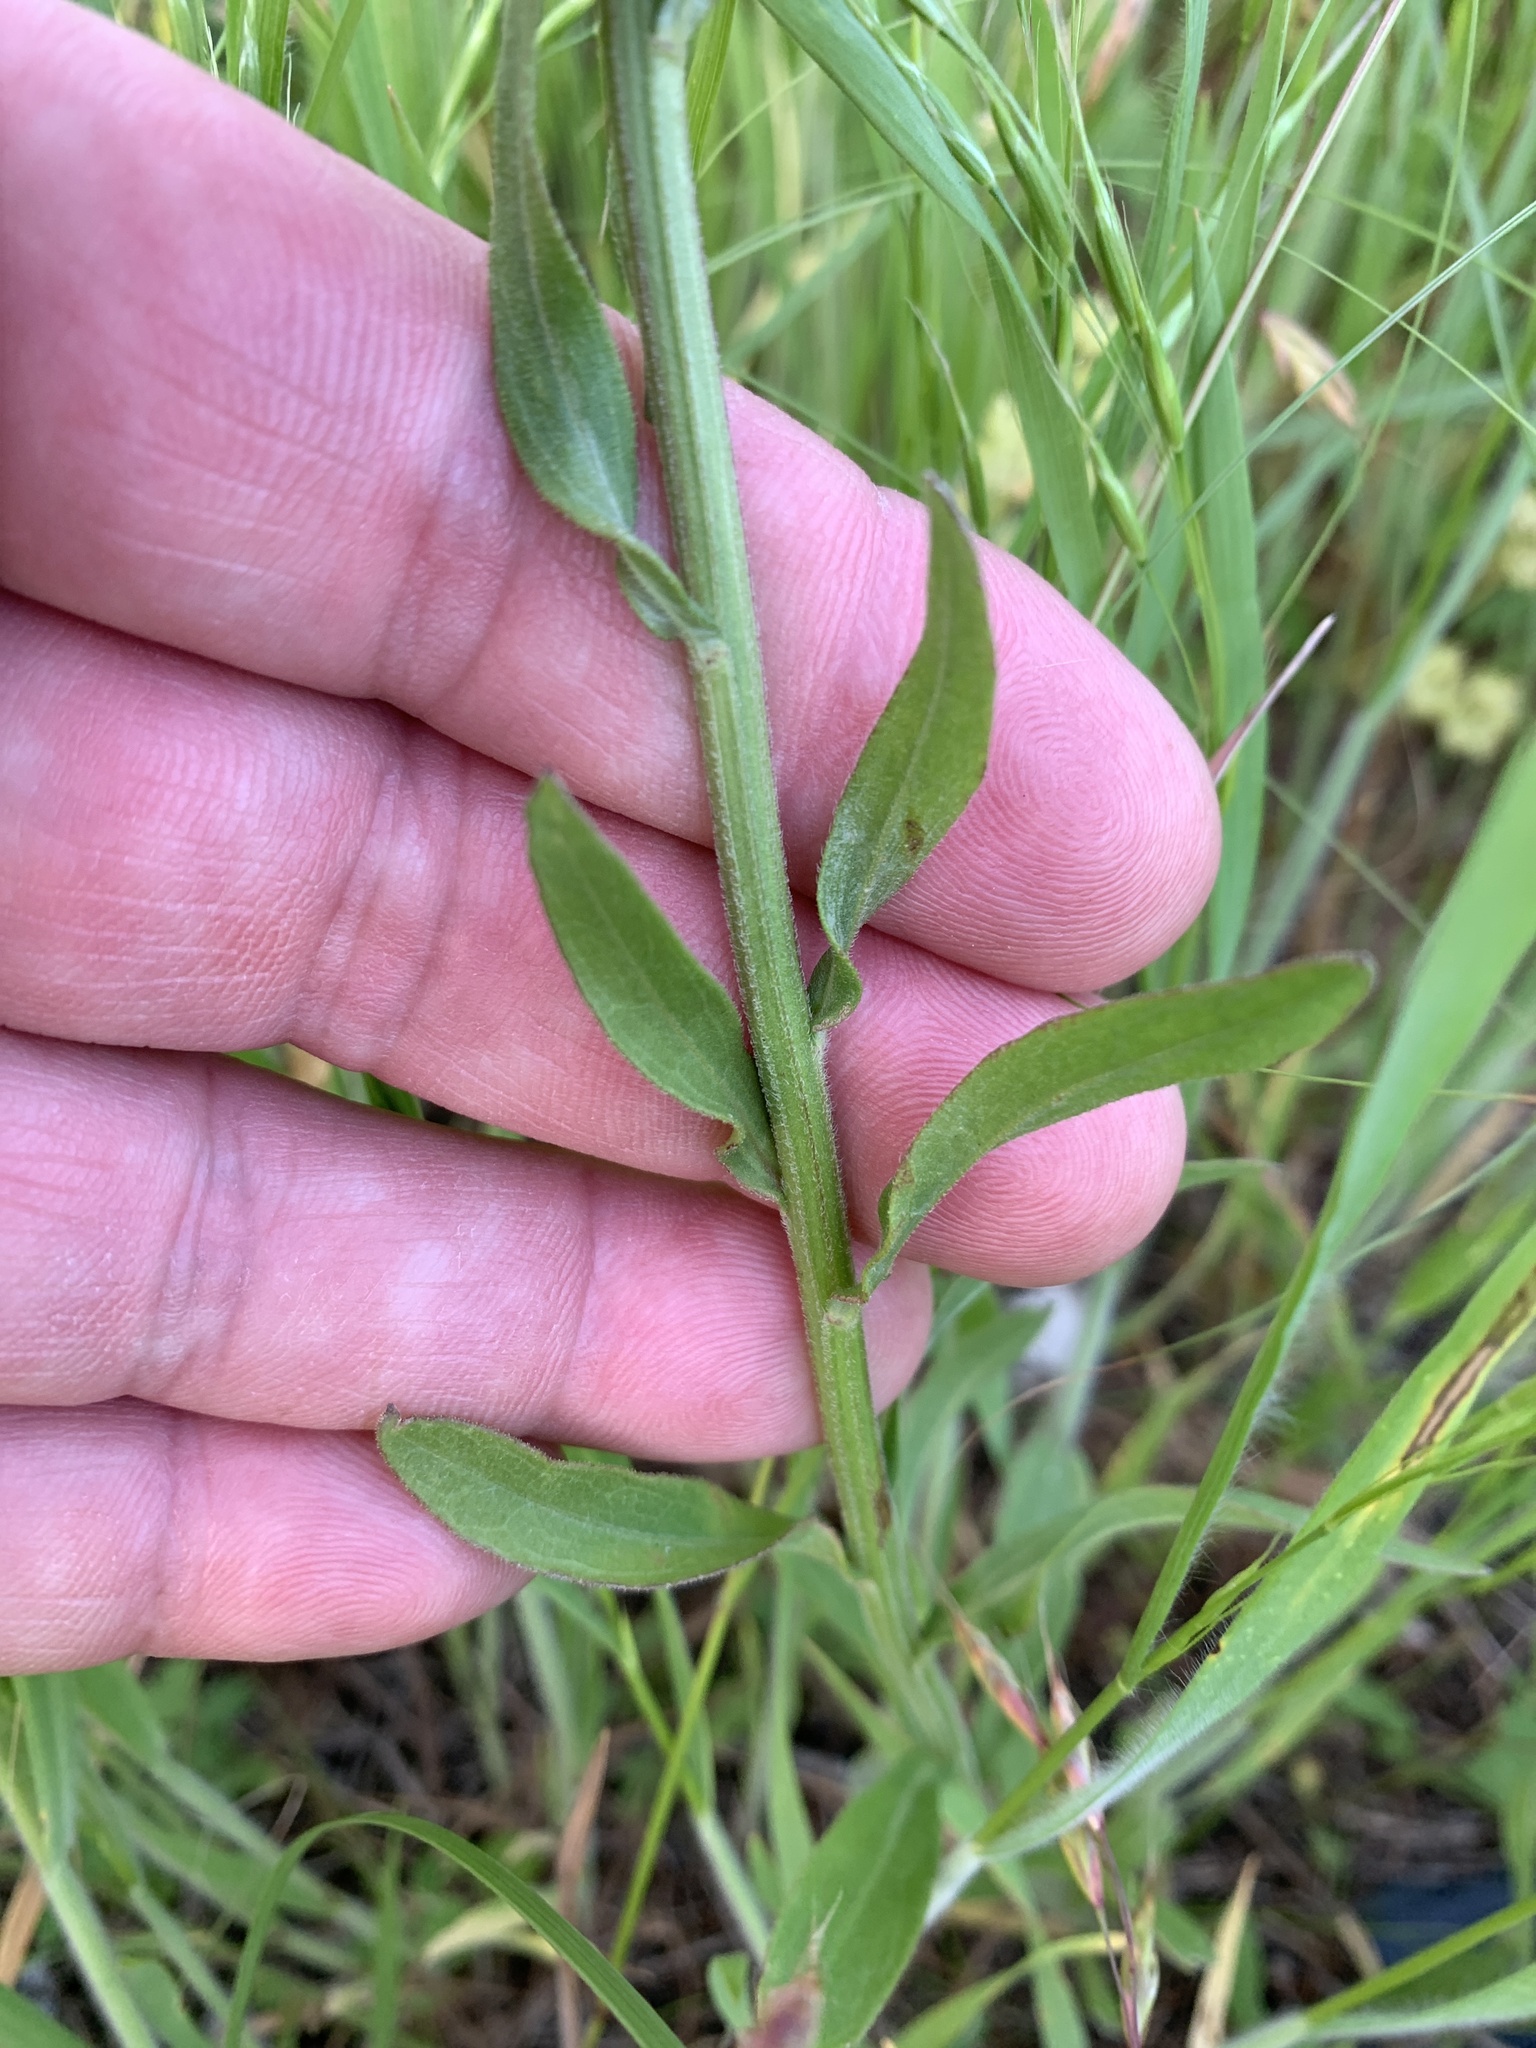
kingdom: Plantae
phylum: Tracheophyta
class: Magnoliopsida
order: Asterales
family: Asteraceae
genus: Erigeron
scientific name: Erigeron strigosus
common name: Common eastern fleabane
